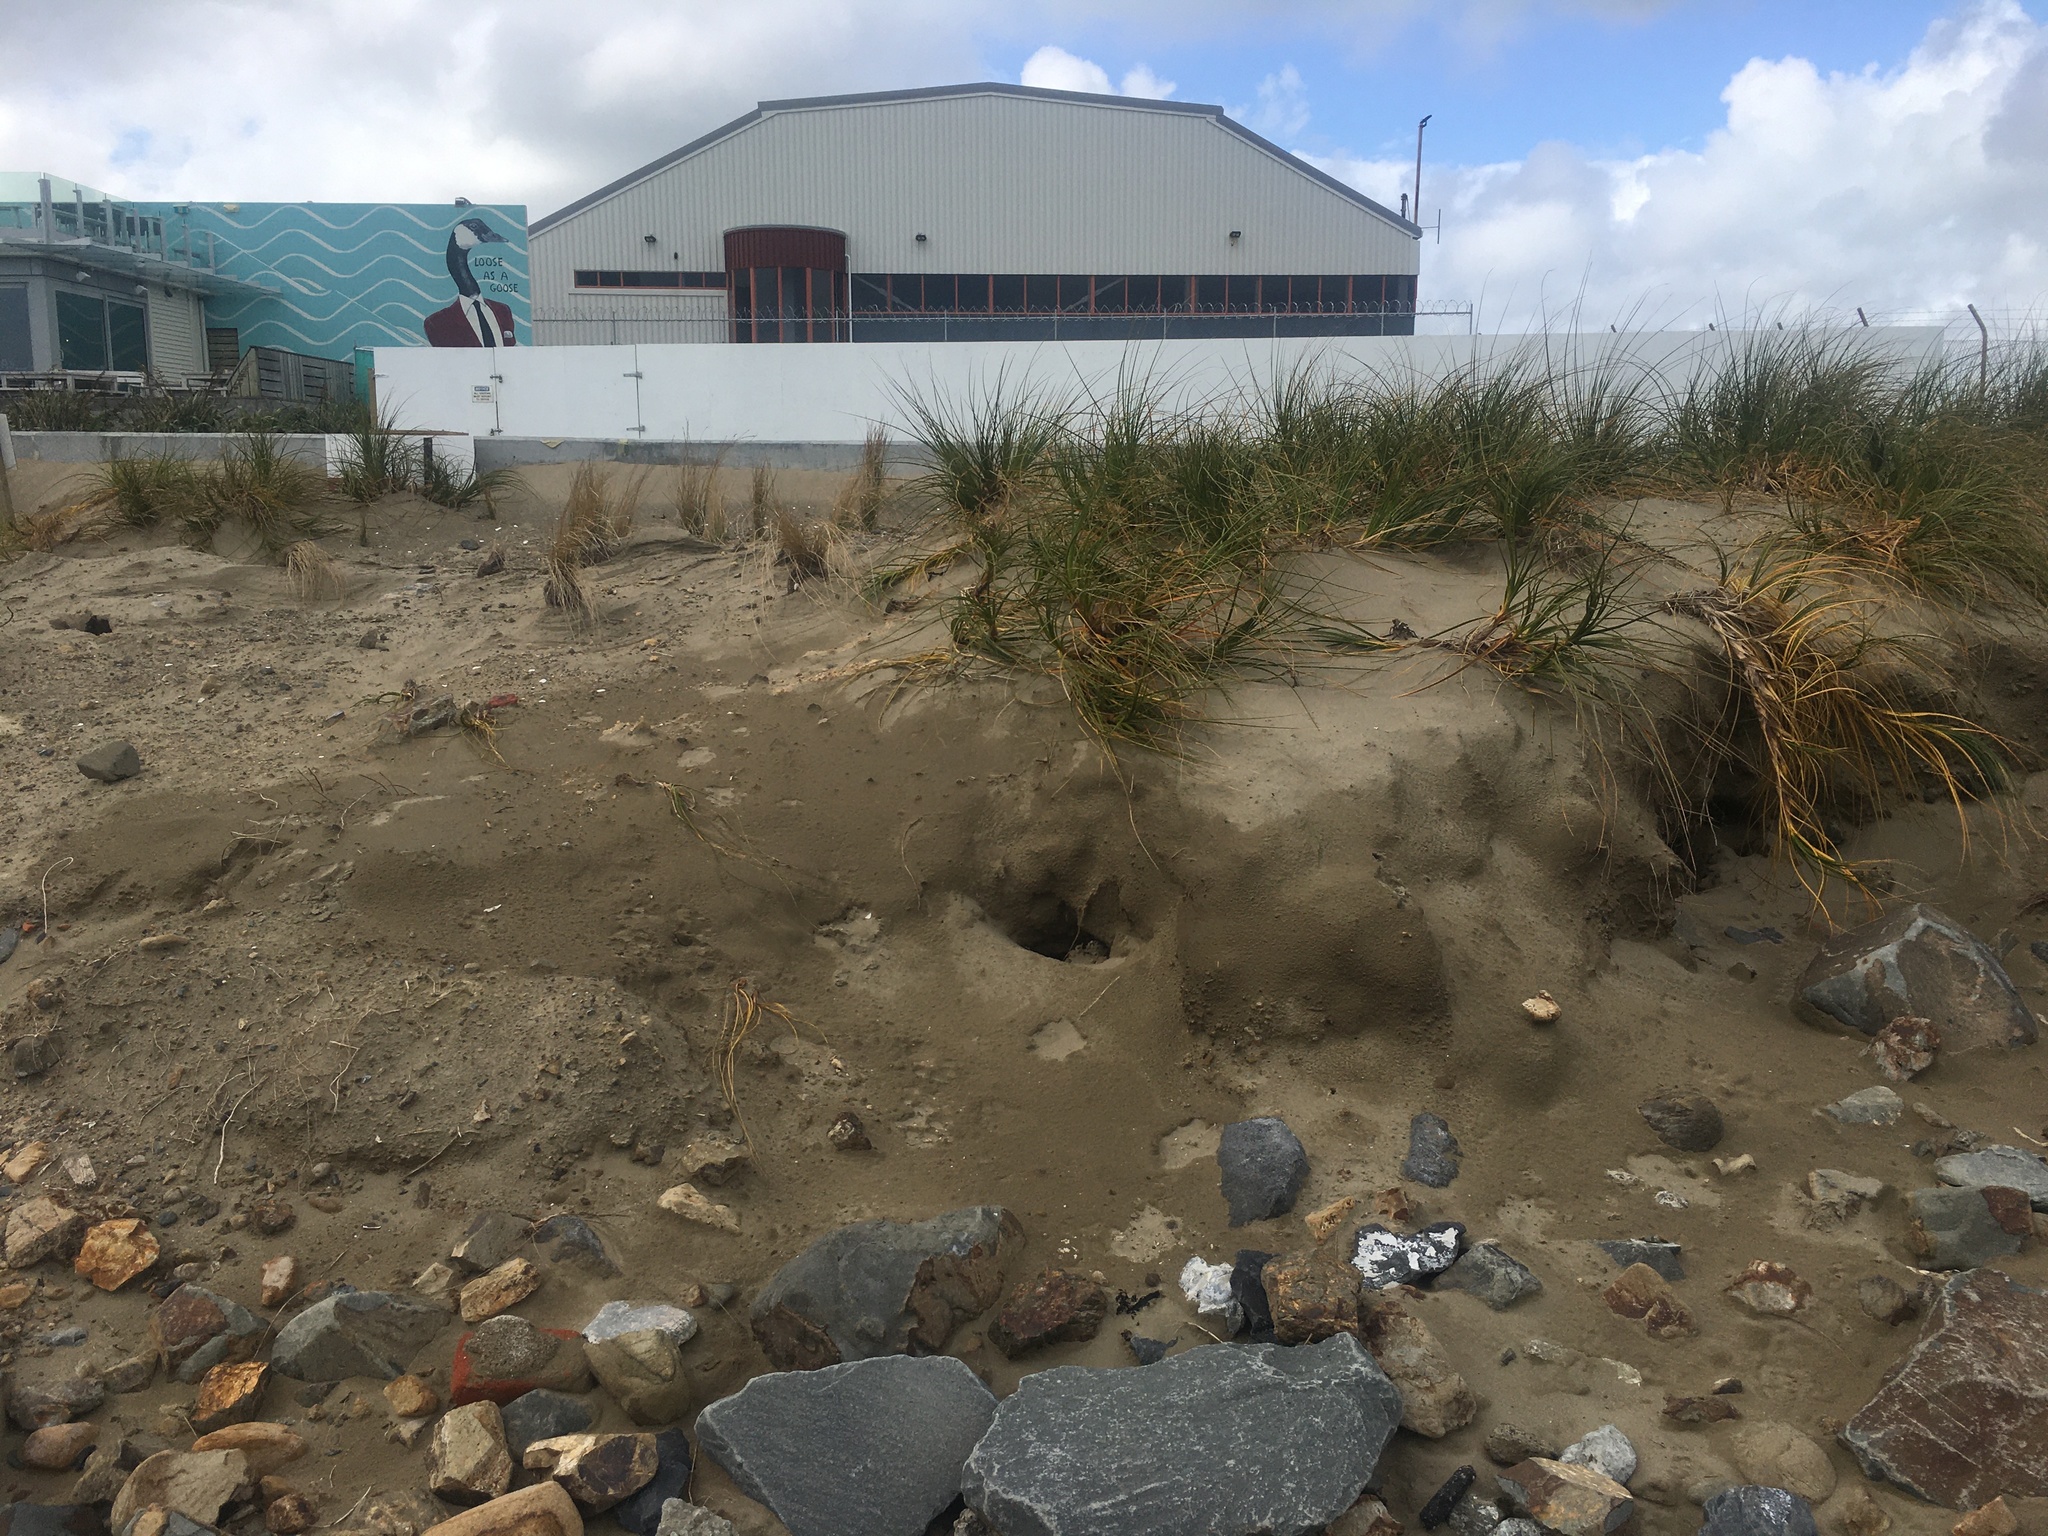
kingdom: Plantae
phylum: Tracheophyta
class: Liliopsida
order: Poales
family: Cyperaceae
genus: Ficinia
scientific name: Ficinia spiralis
